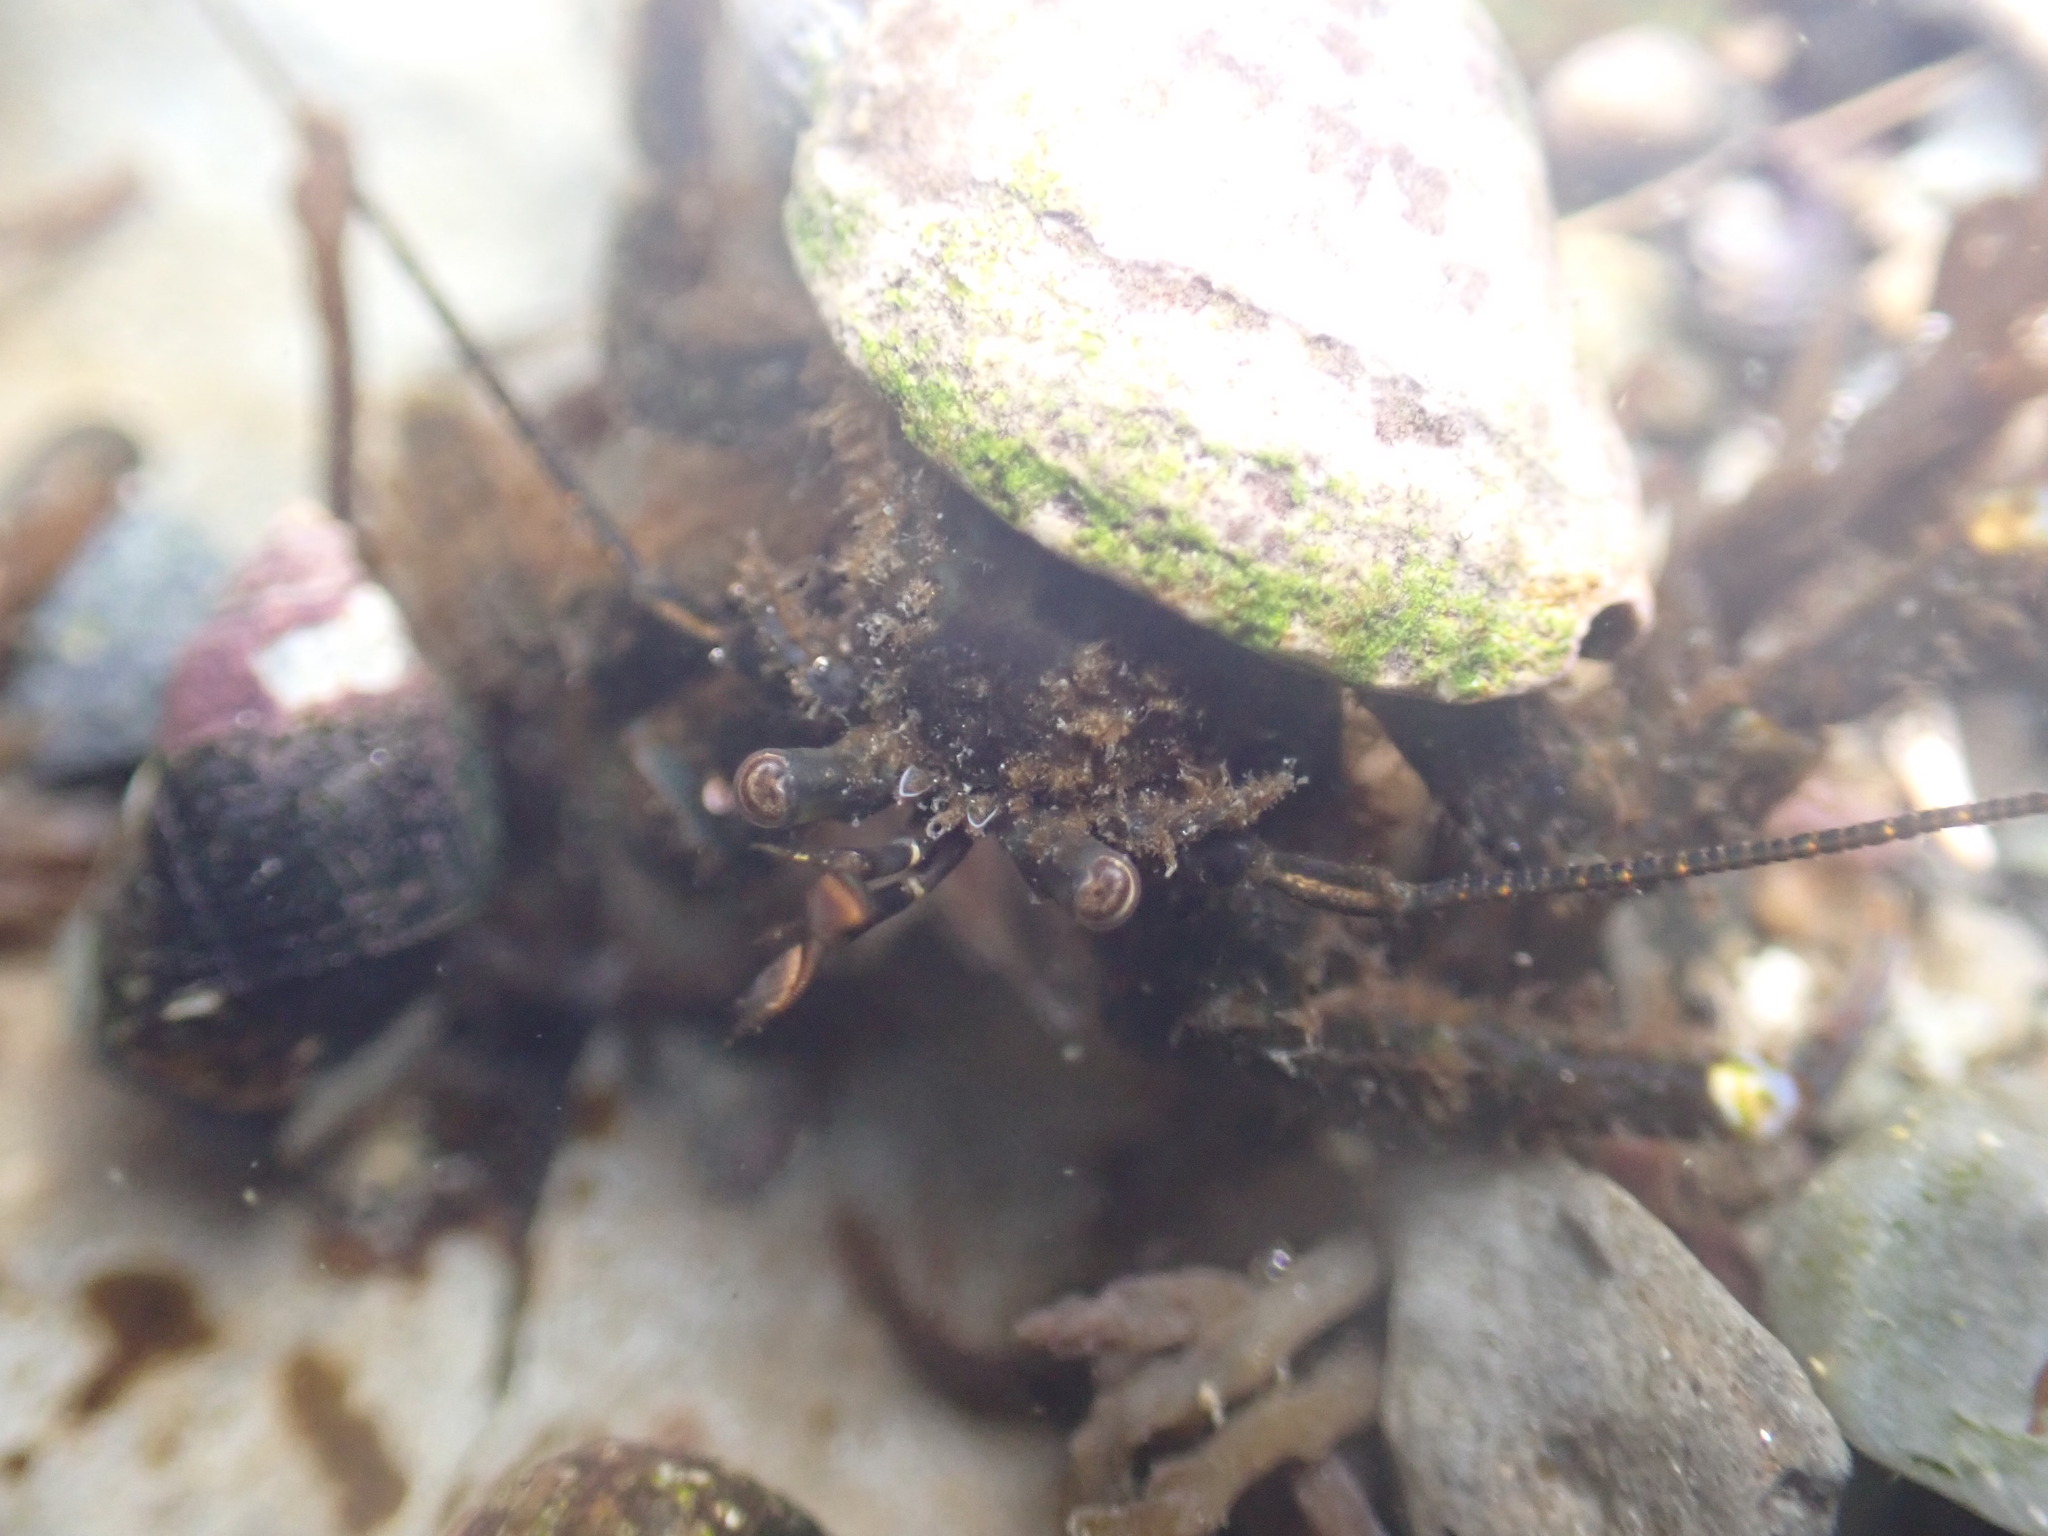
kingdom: Animalia
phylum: Arthropoda
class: Malacostraca
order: Decapoda
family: Paguridae
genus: Pagurus
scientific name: Pagurus hirsutiusculus
